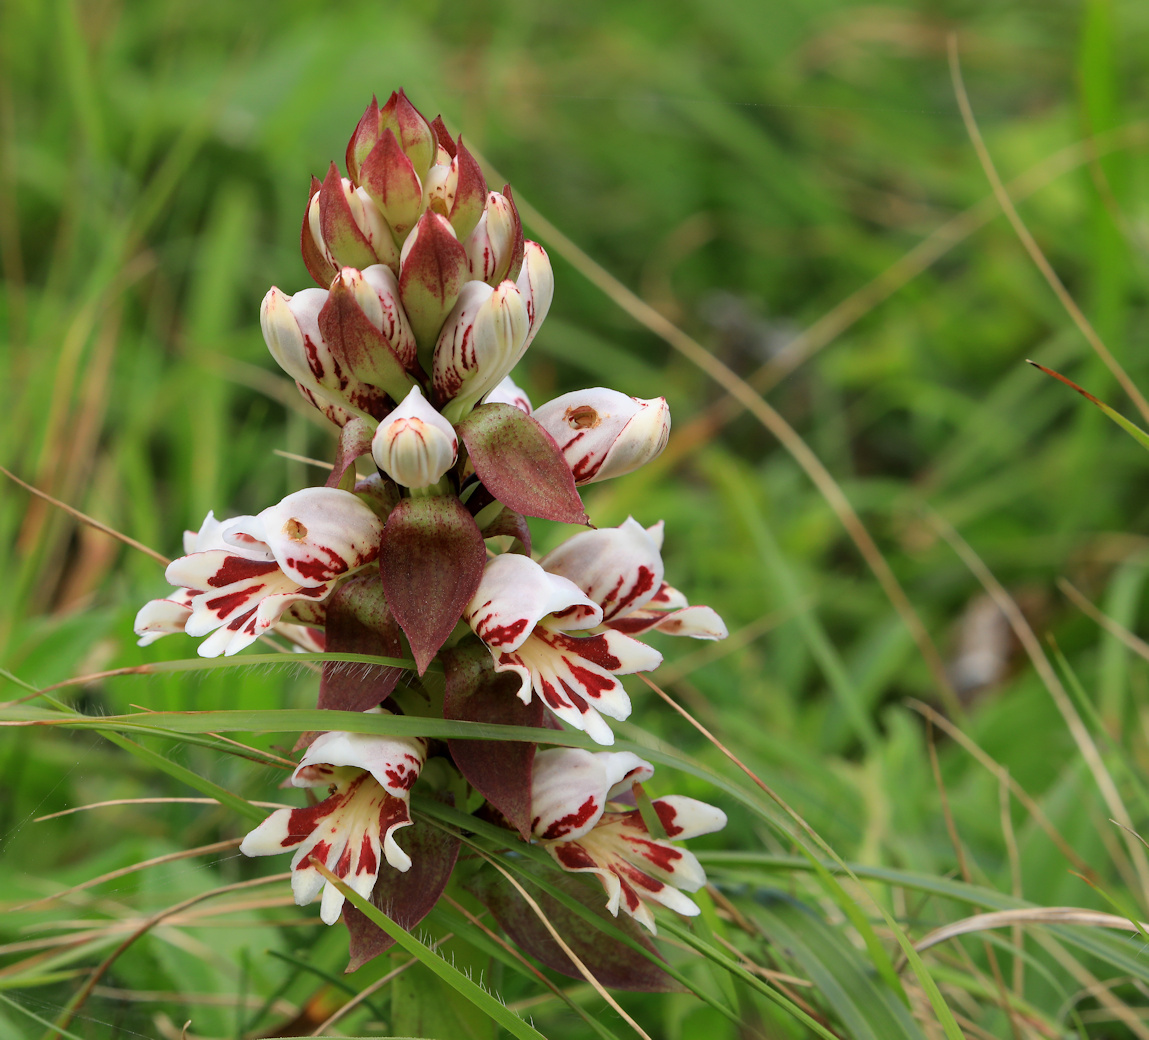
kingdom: Plantae
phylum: Tracheophyta
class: Liliopsida
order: Asparagales
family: Orchidaceae
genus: Satyrium
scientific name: Satyrium sphaerocarpum
